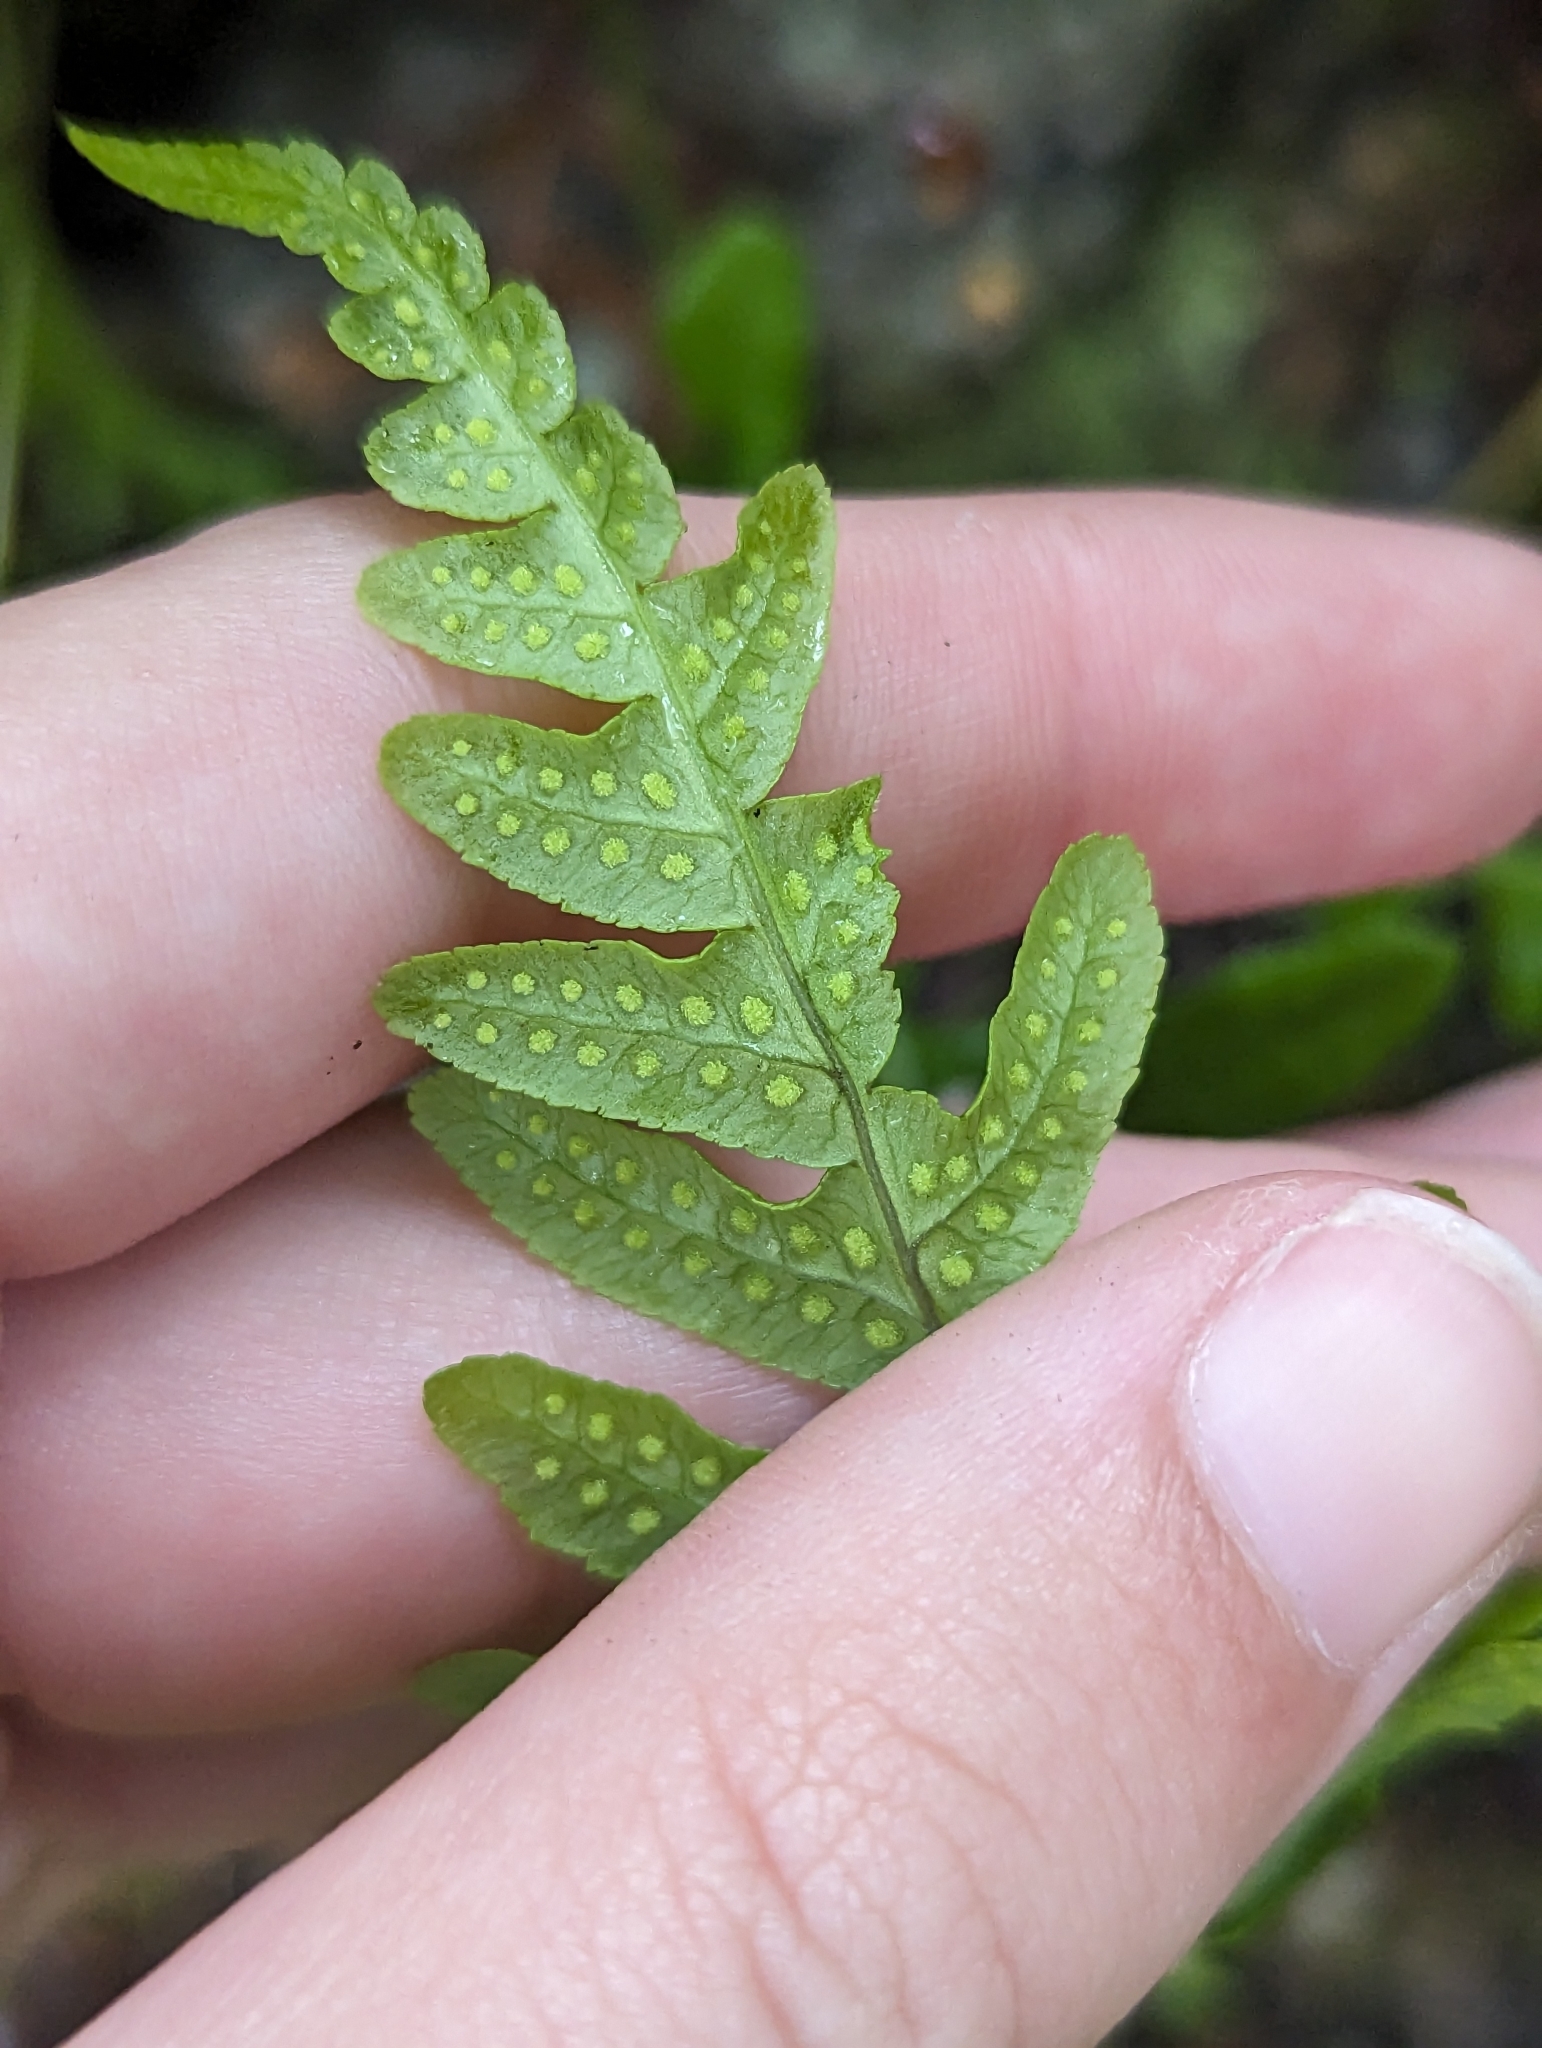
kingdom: Plantae
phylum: Tracheophyta
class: Polypodiopsida
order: Polypodiales
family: Polypodiaceae
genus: Polypodium
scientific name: Polypodium glycyrrhiza
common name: Licorice fern
